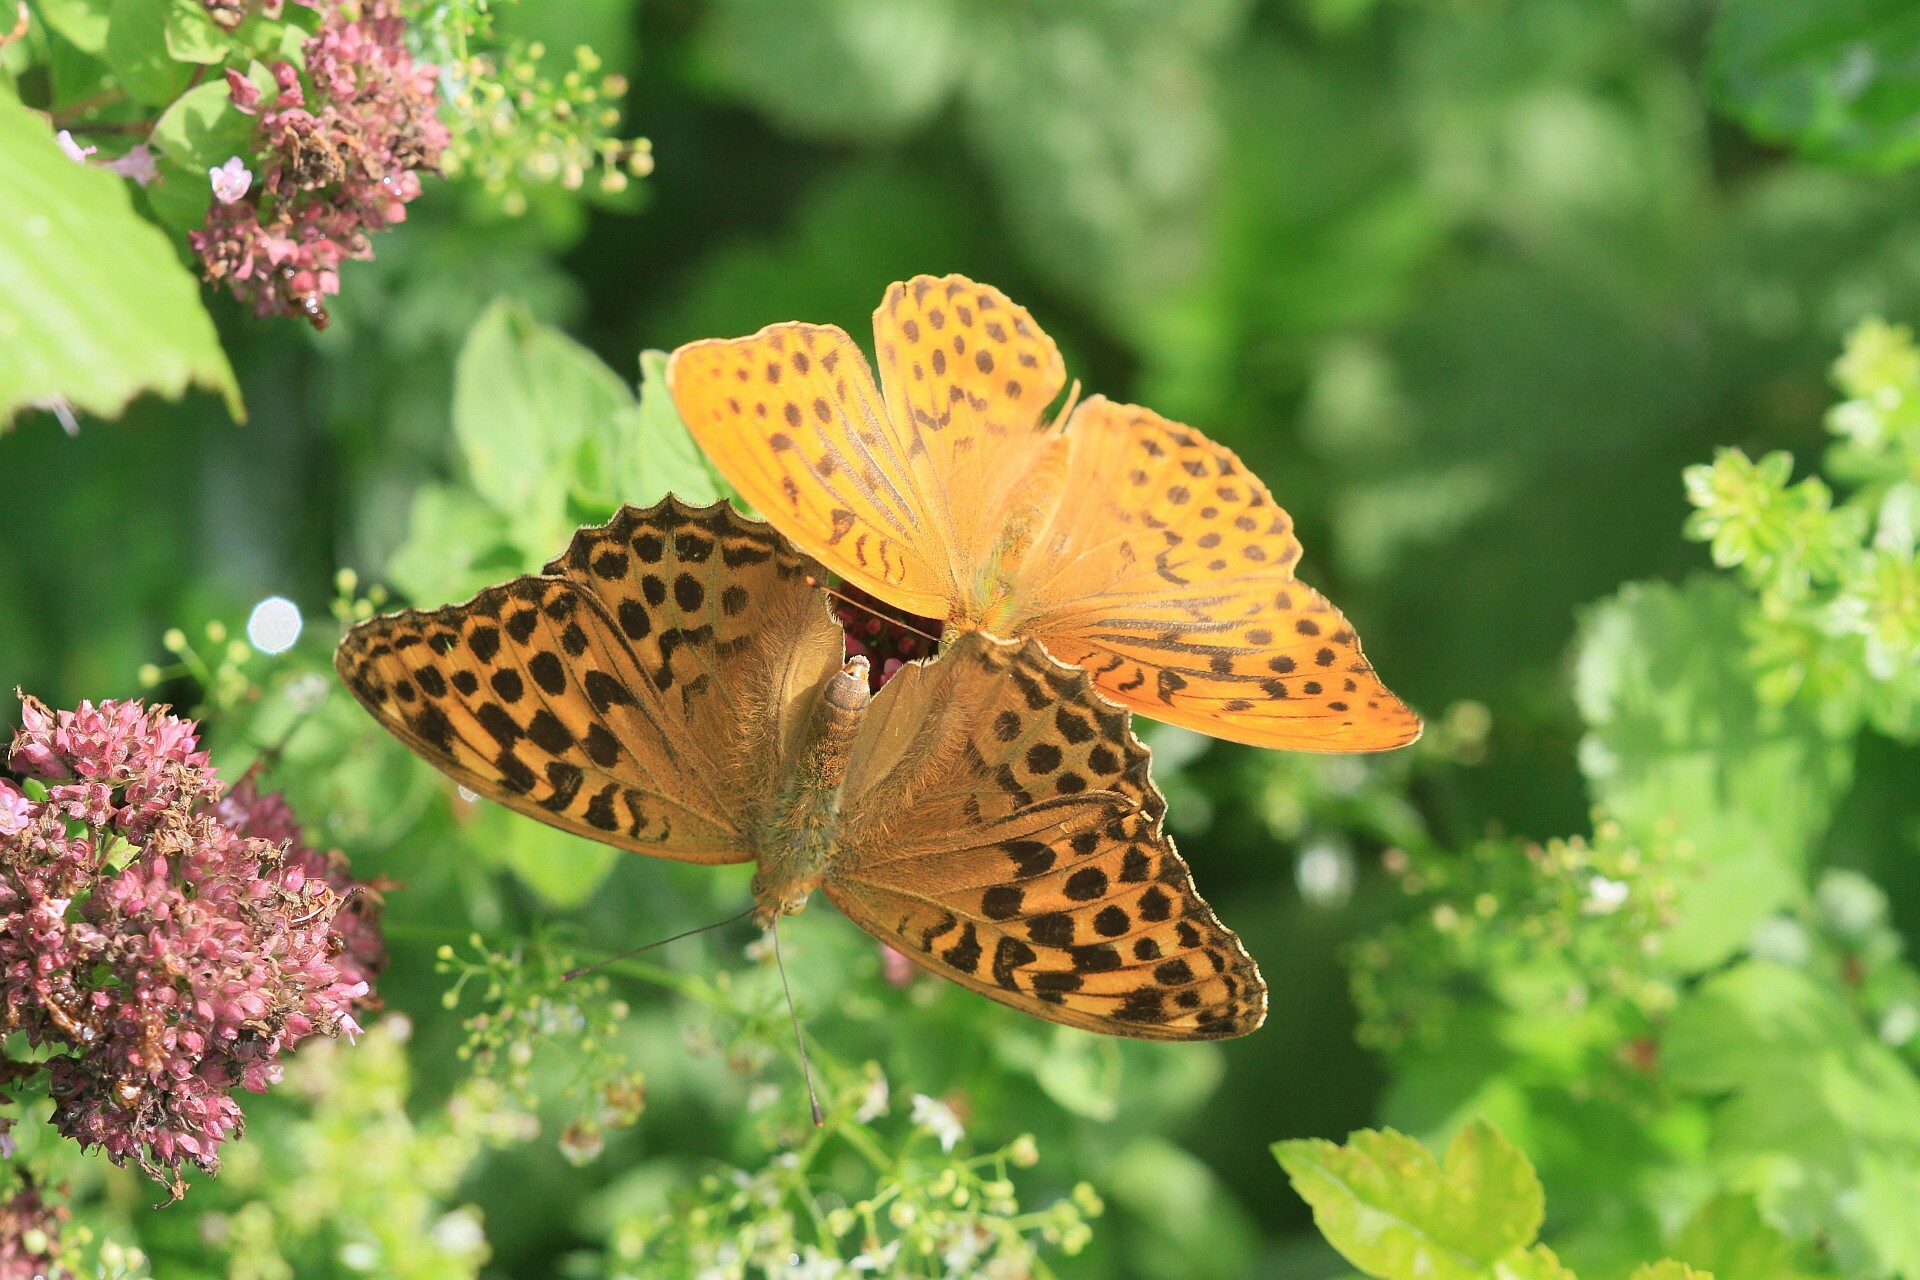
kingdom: Animalia
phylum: Arthropoda
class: Insecta
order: Lepidoptera
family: Nymphalidae
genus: Argynnis
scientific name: Argynnis paphia
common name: Silver-washed fritillary
